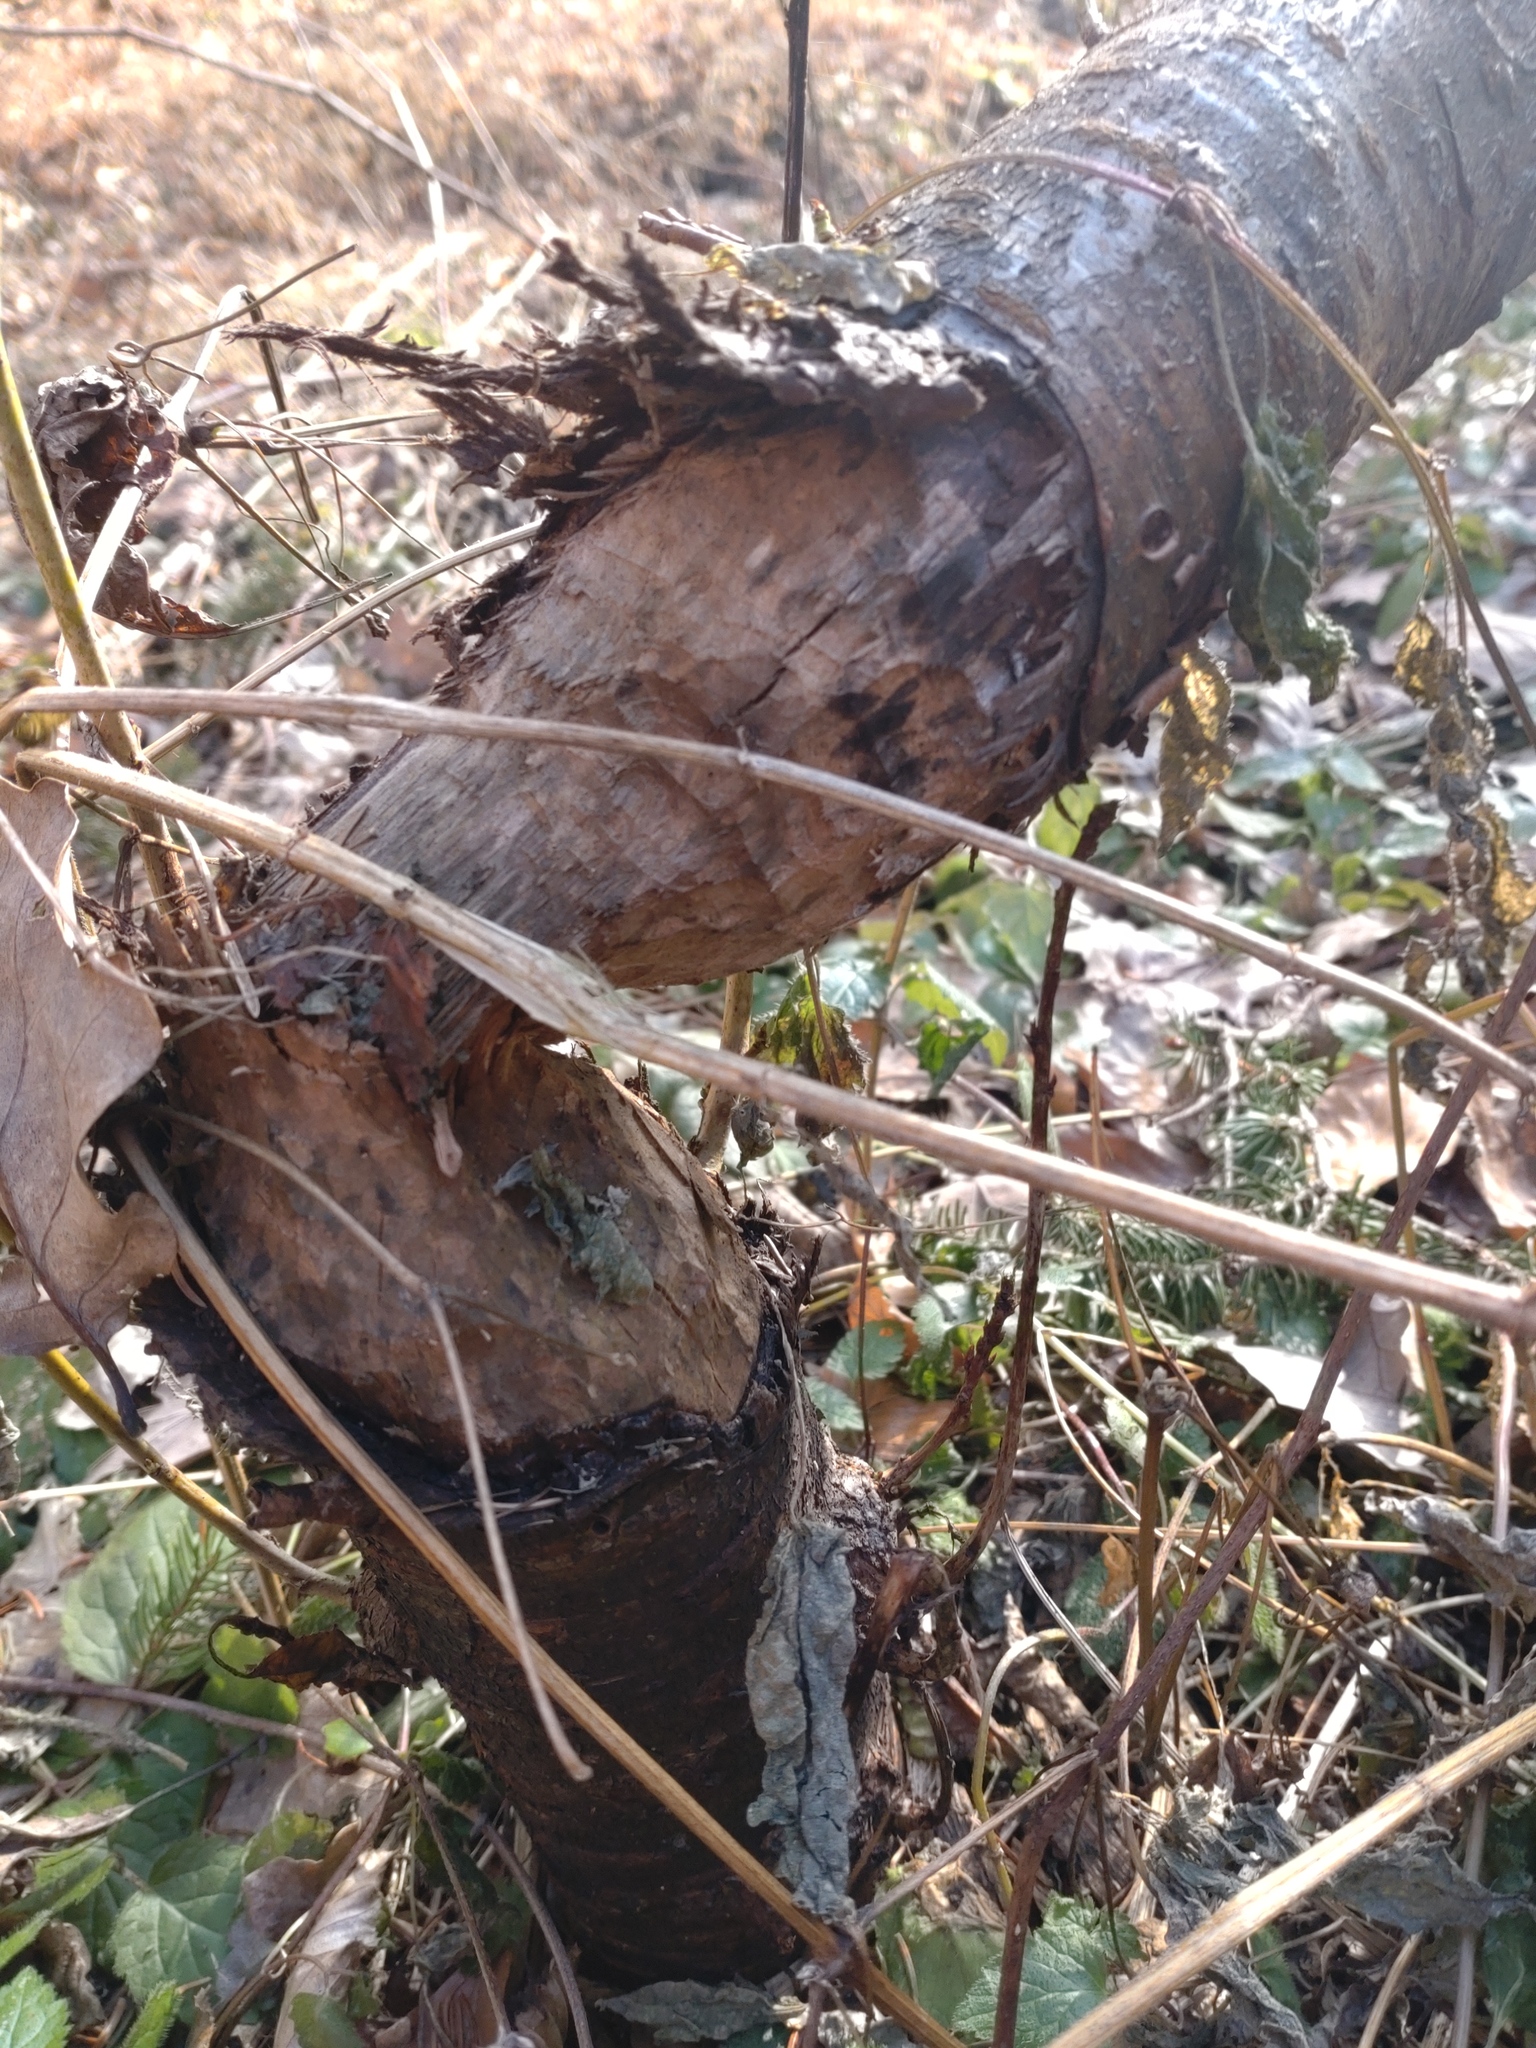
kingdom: Animalia
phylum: Chordata
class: Mammalia
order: Rodentia
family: Castoridae
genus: Castor
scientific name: Castor fiber
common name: Eurasian beaver
